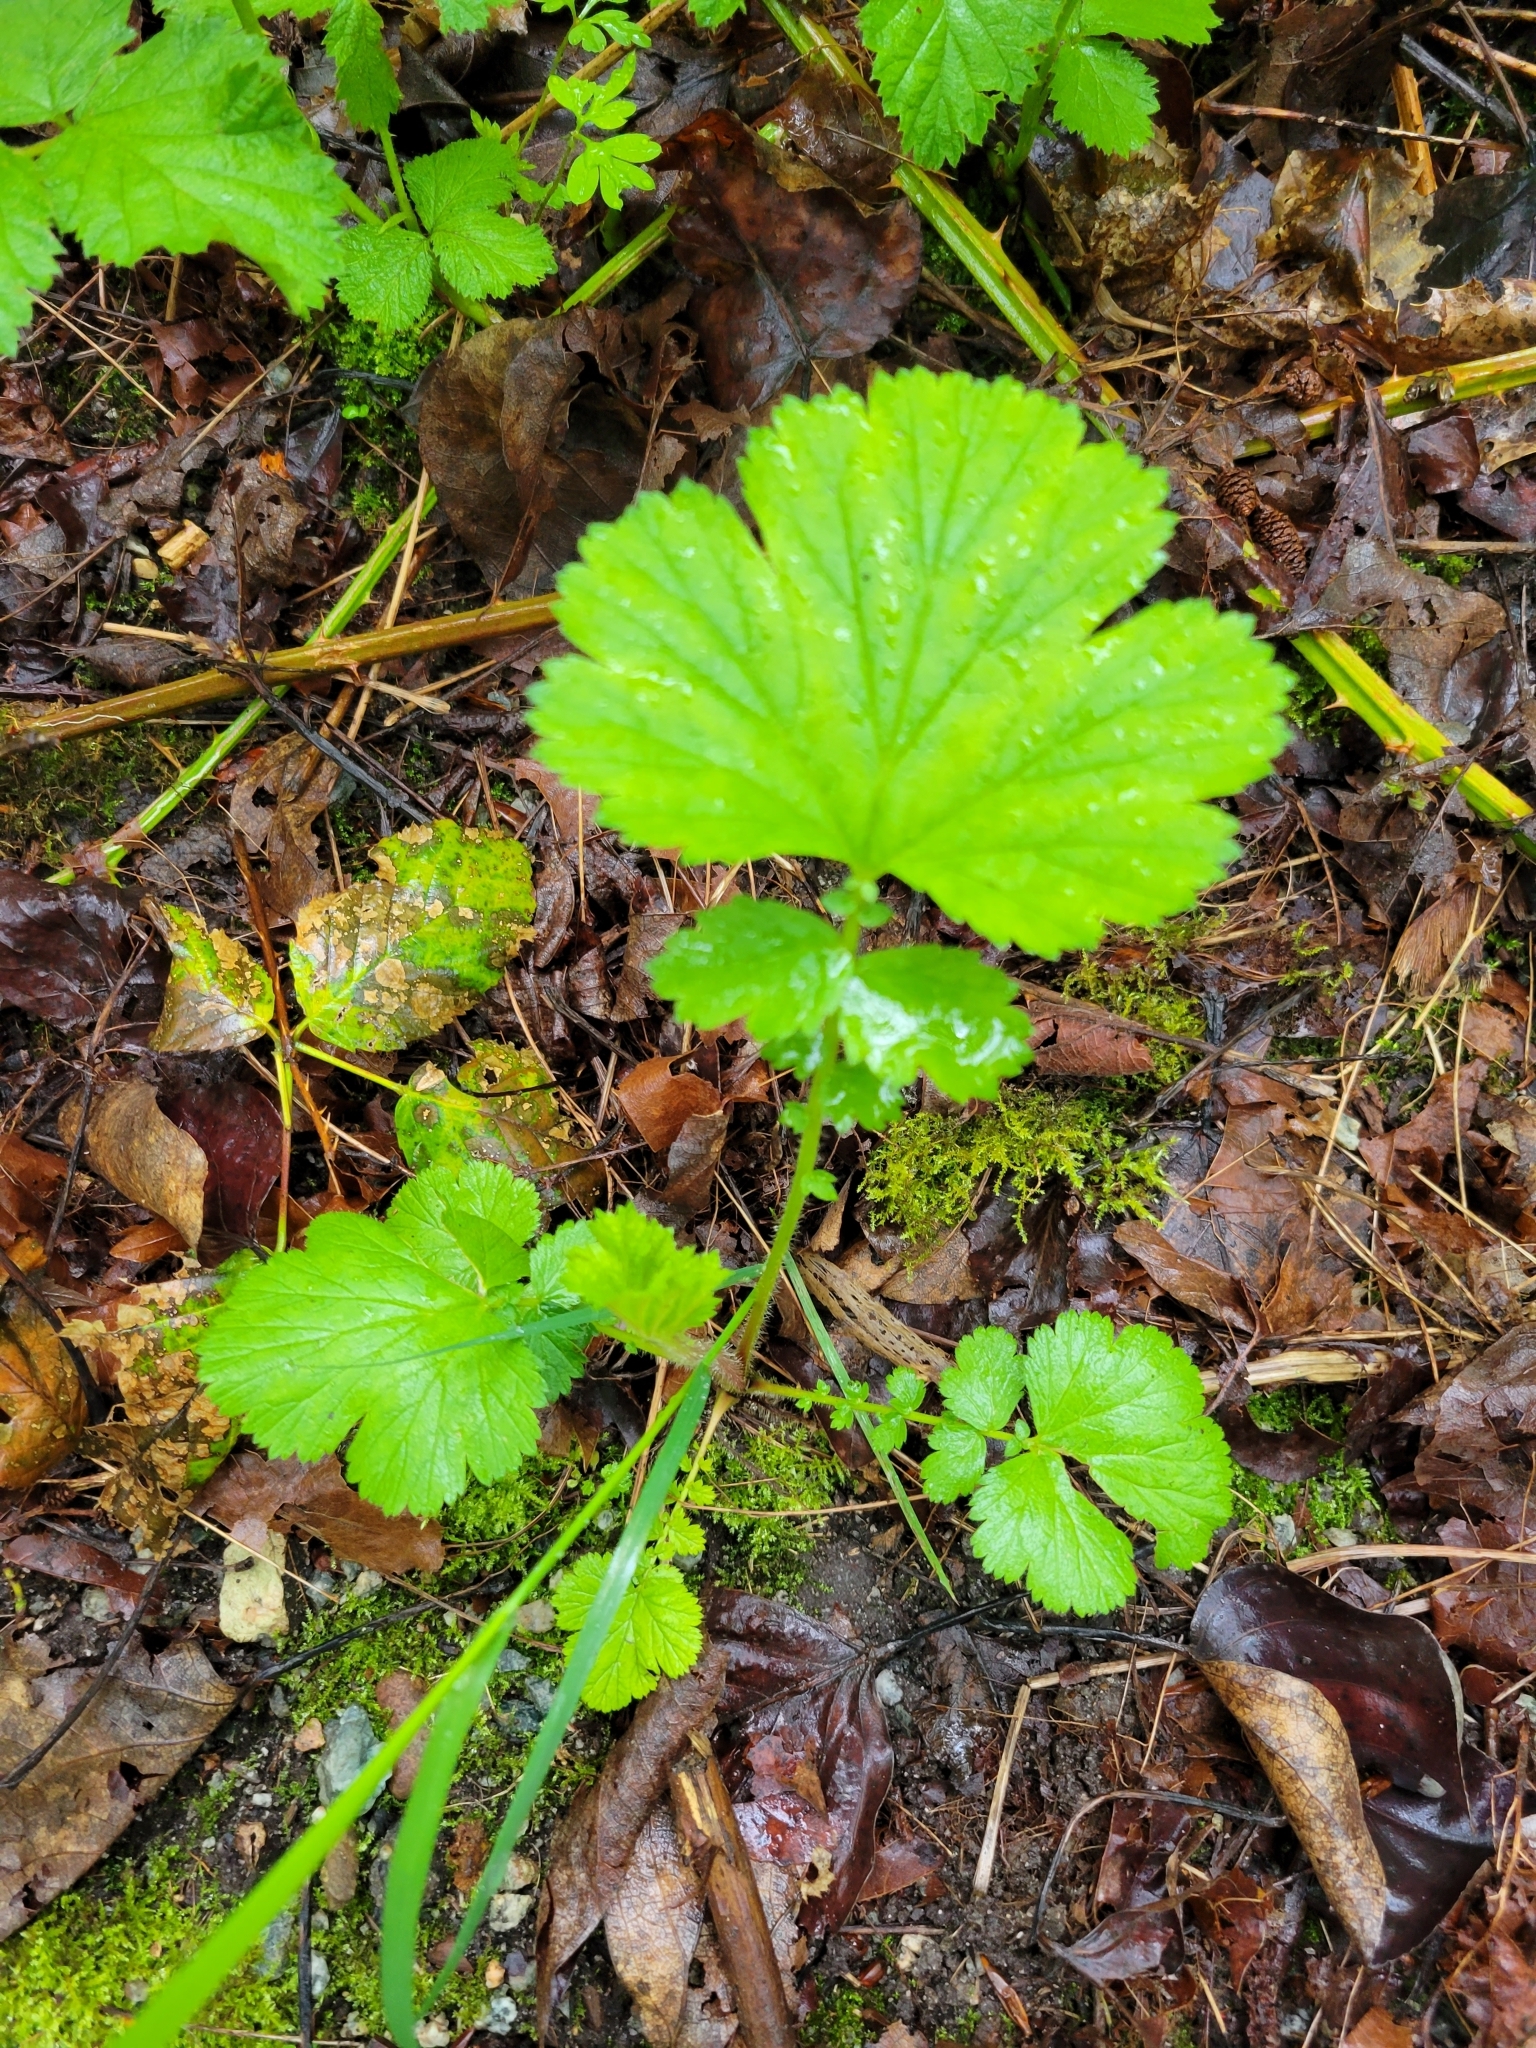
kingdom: Plantae
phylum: Tracheophyta
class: Magnoliopsida
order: Rosales
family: Rosaceae
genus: Geum
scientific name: Geum macrophyllum
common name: Large-leaved avens
